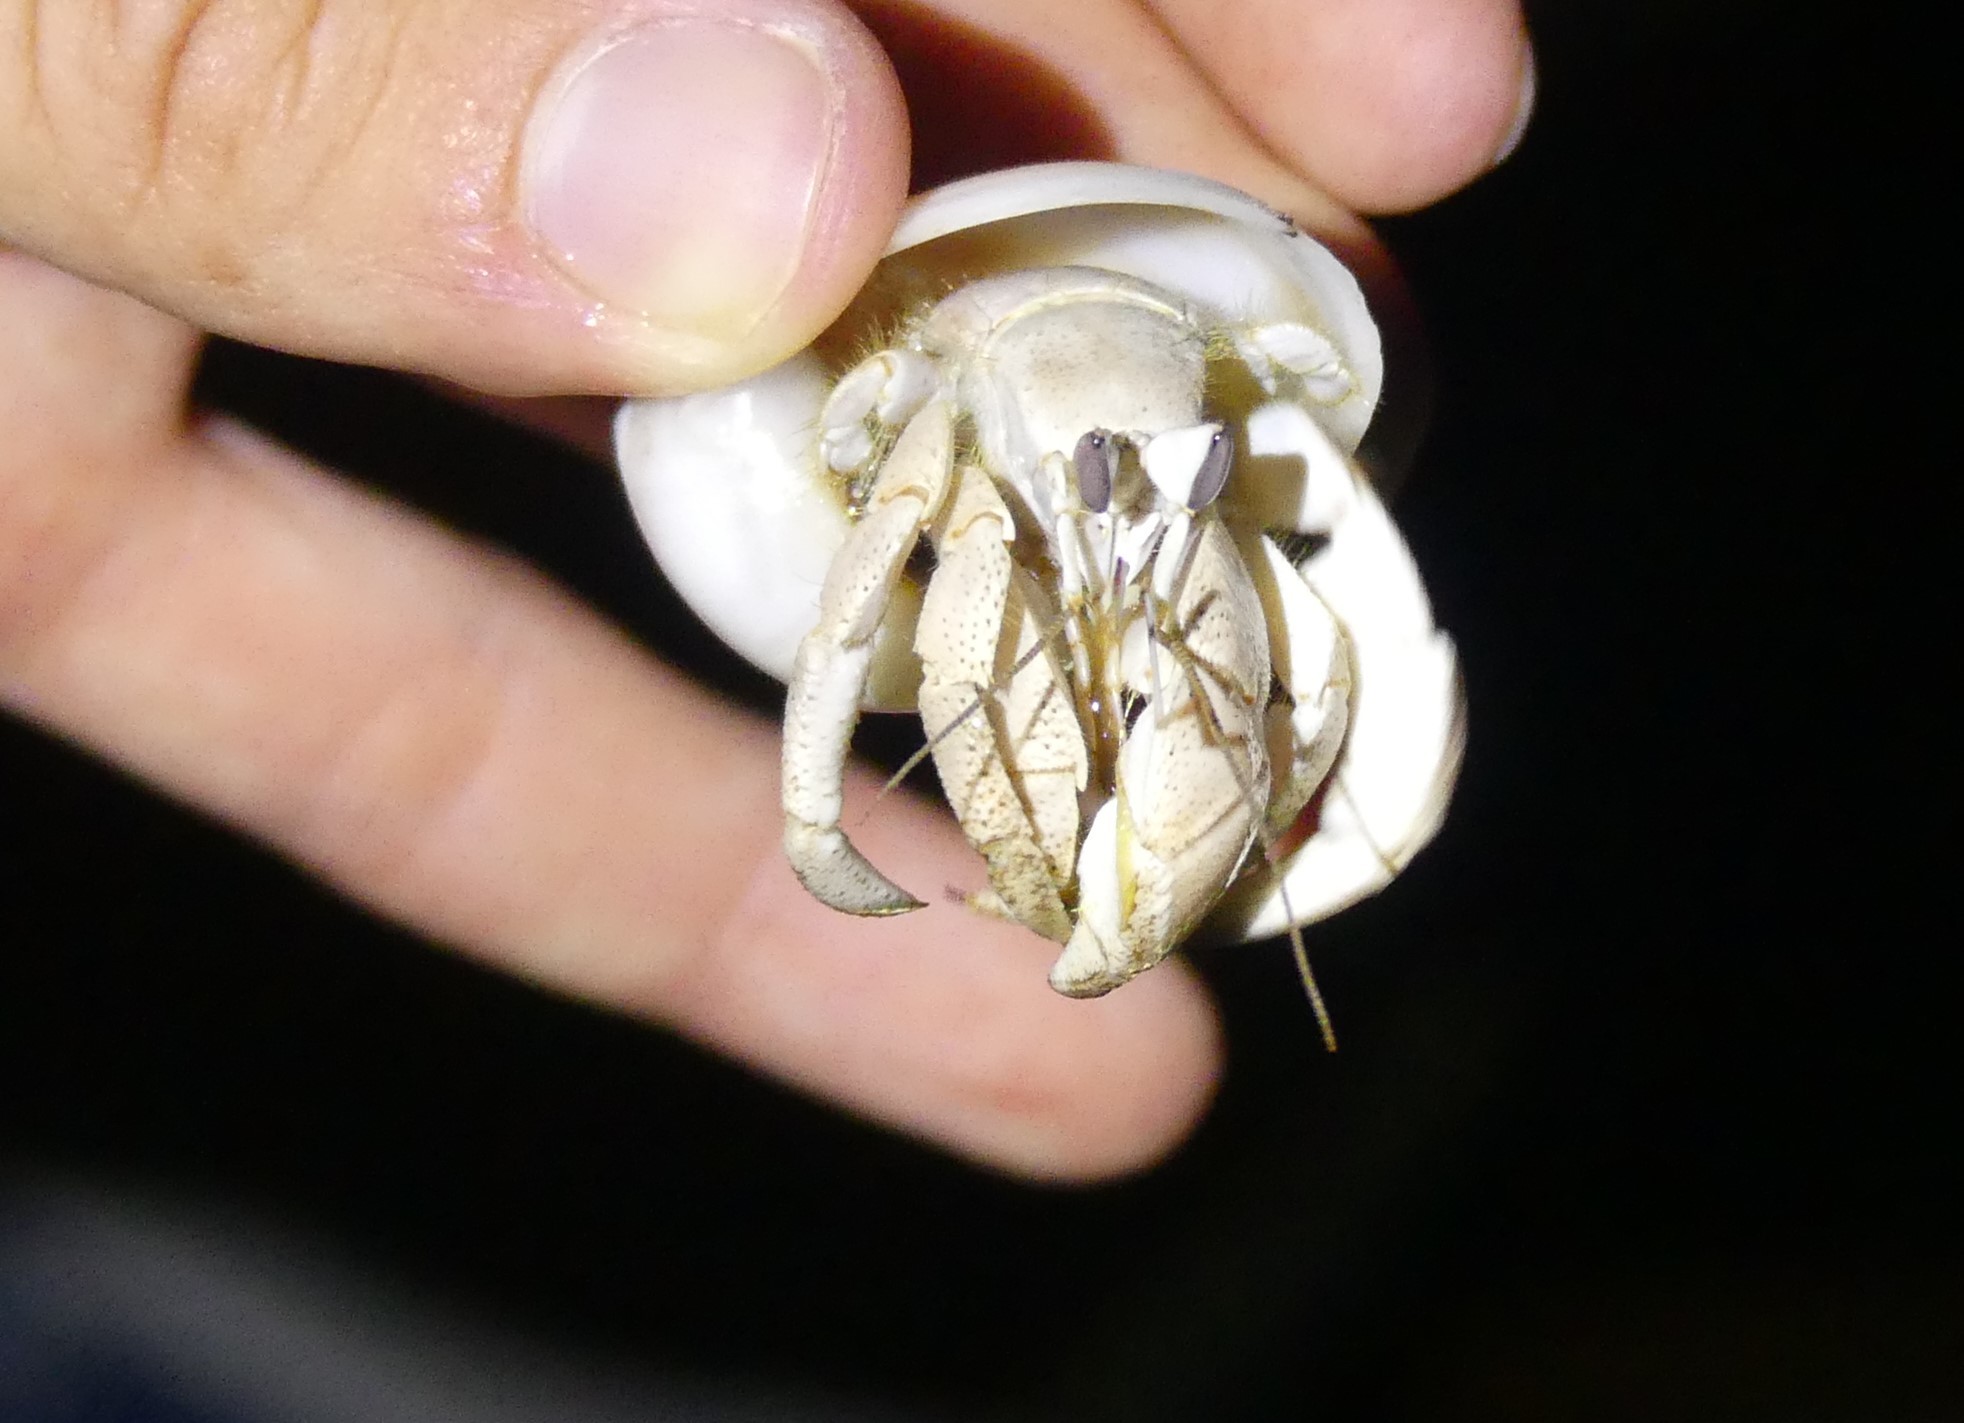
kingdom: Animalia
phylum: Arthropoda
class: Malacostraca
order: Decapoda
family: Coenobitidae
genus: Coenobita
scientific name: Coenobita scaevola
